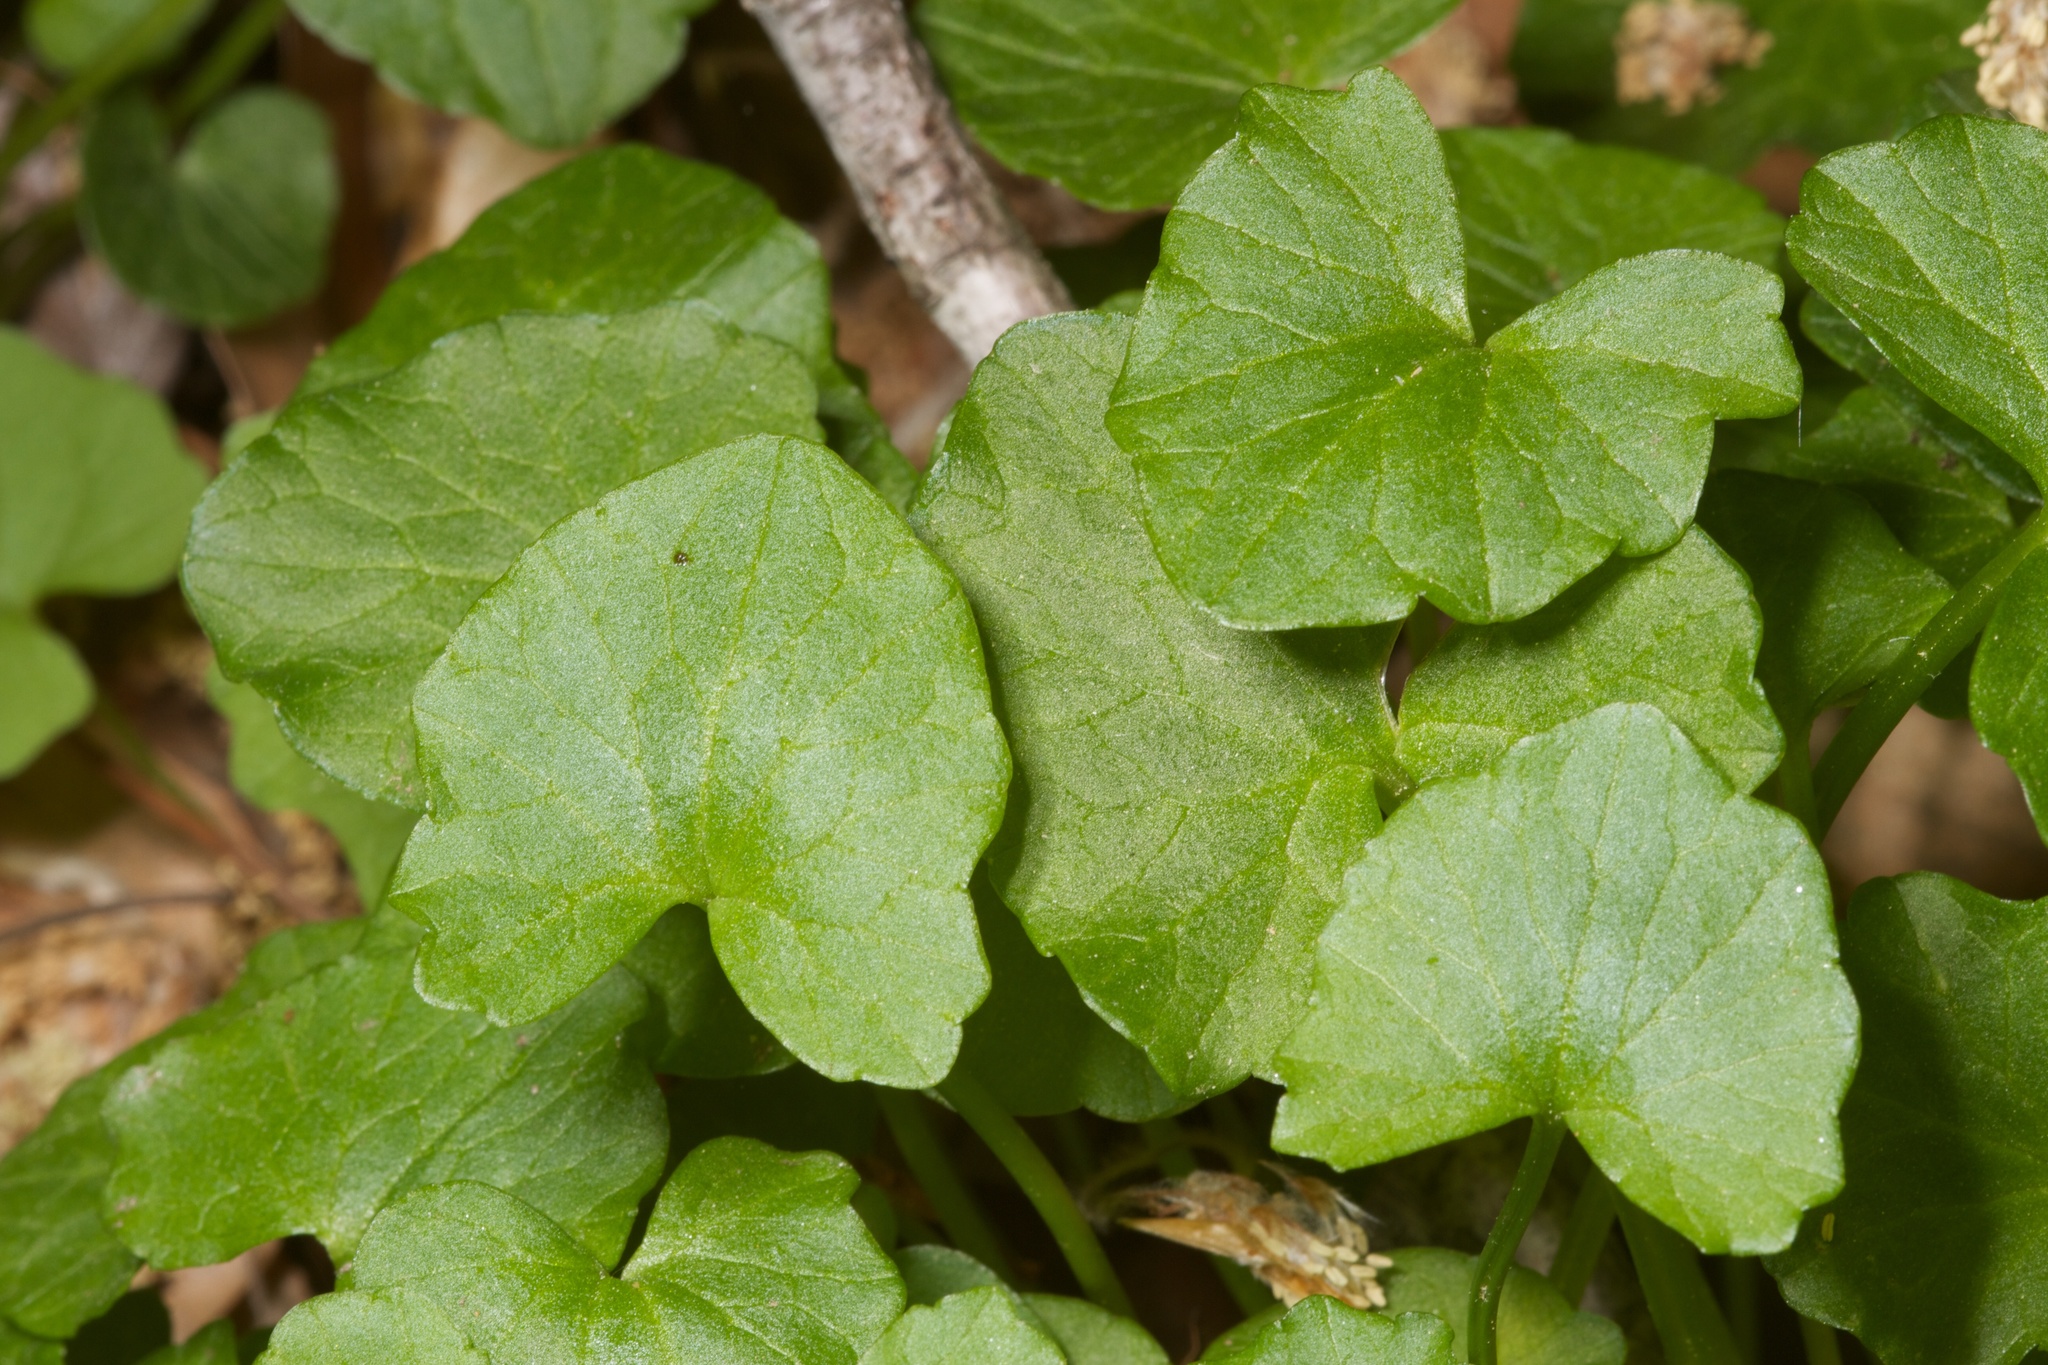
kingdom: Plantae
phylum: Tracheophyta
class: Magnoliopsida
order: Ranunculales
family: Ranunculaceae
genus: Ficaria
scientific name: Ficaria verna
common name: Lesser celandine
